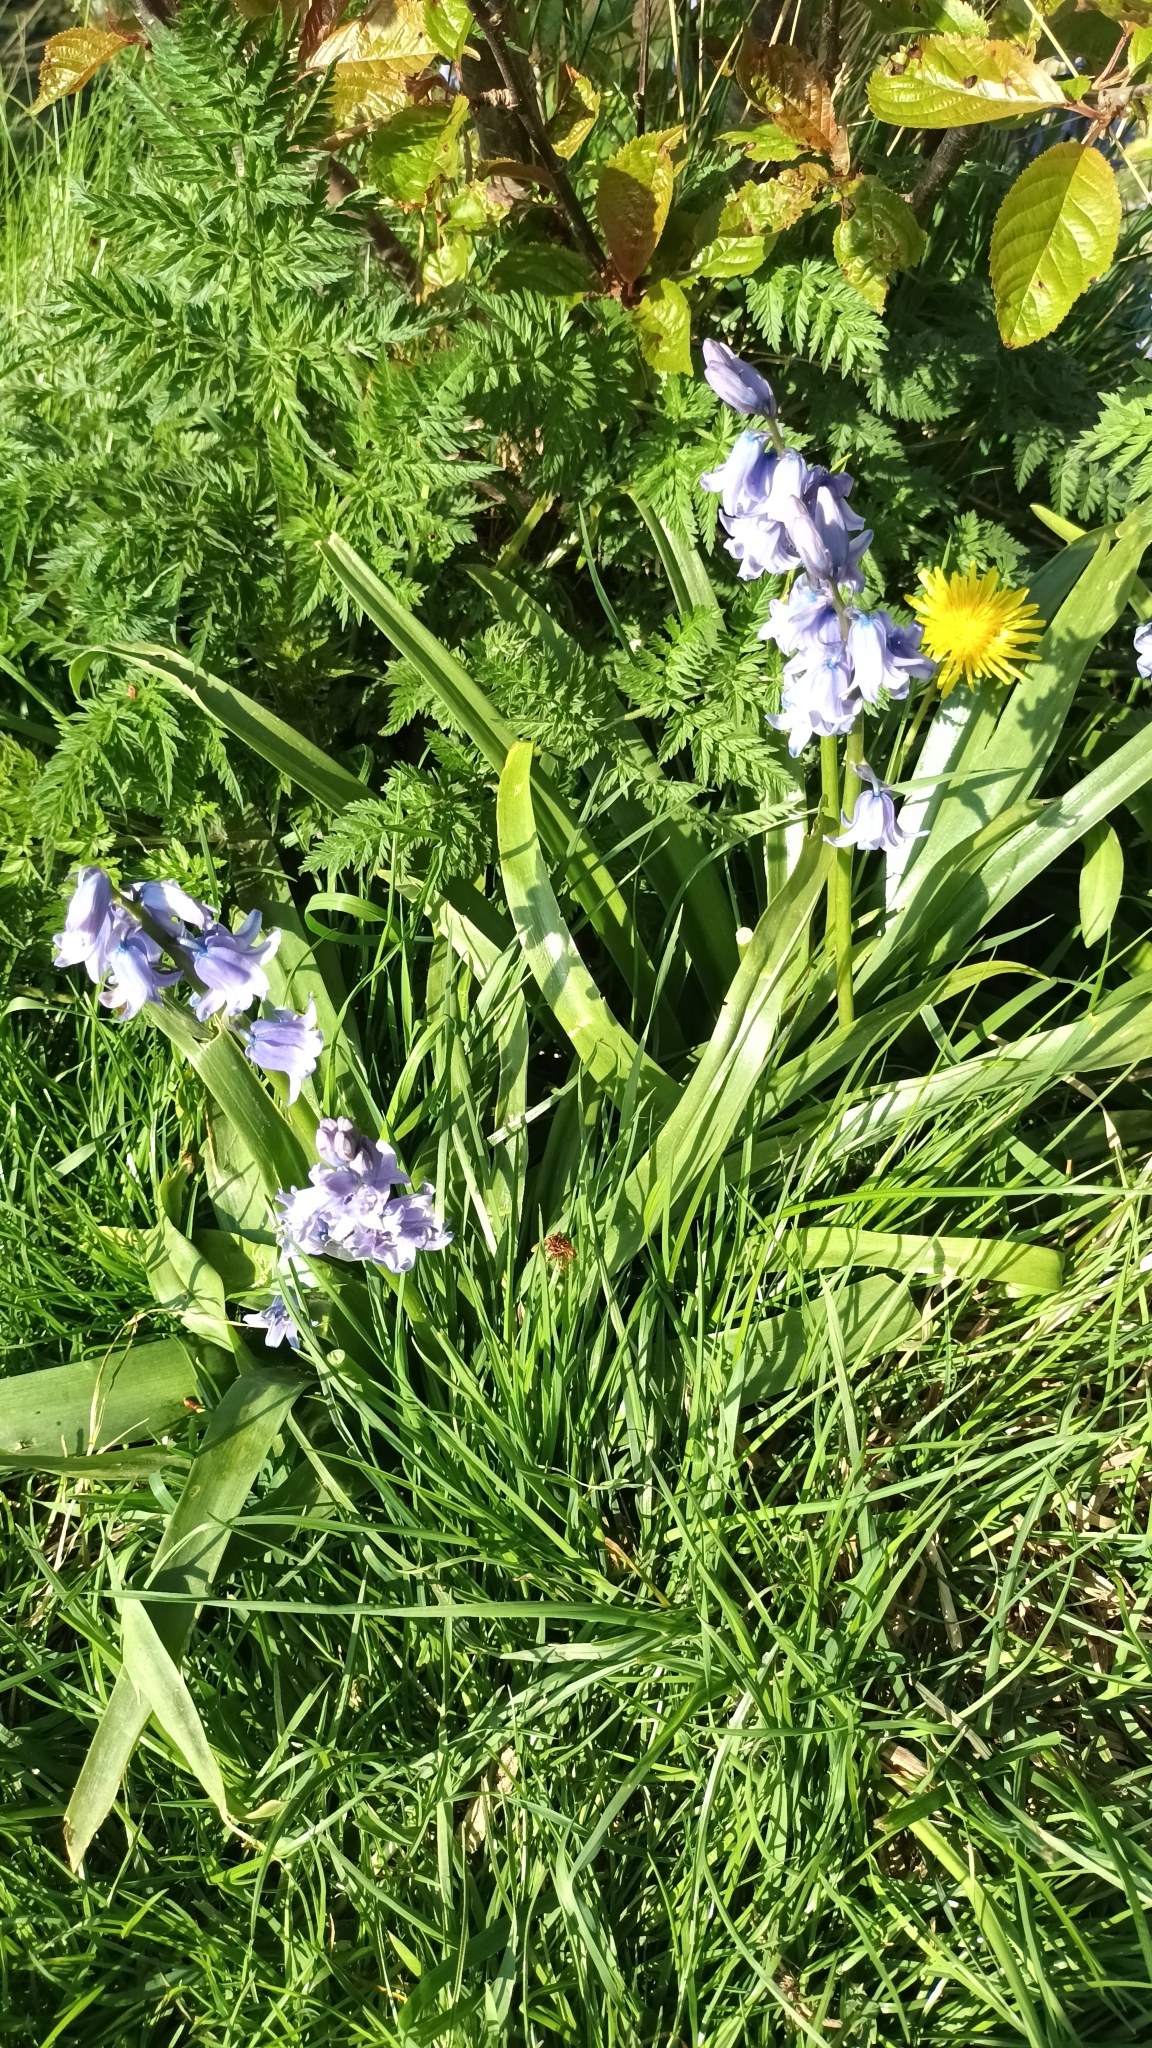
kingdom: Plantae
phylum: Tracheophyta
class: Liliopsida
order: Asparagales
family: Asparagaceae
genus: Hyacinthoides
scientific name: Hyacinthoides non-scripta
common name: Bluebell
